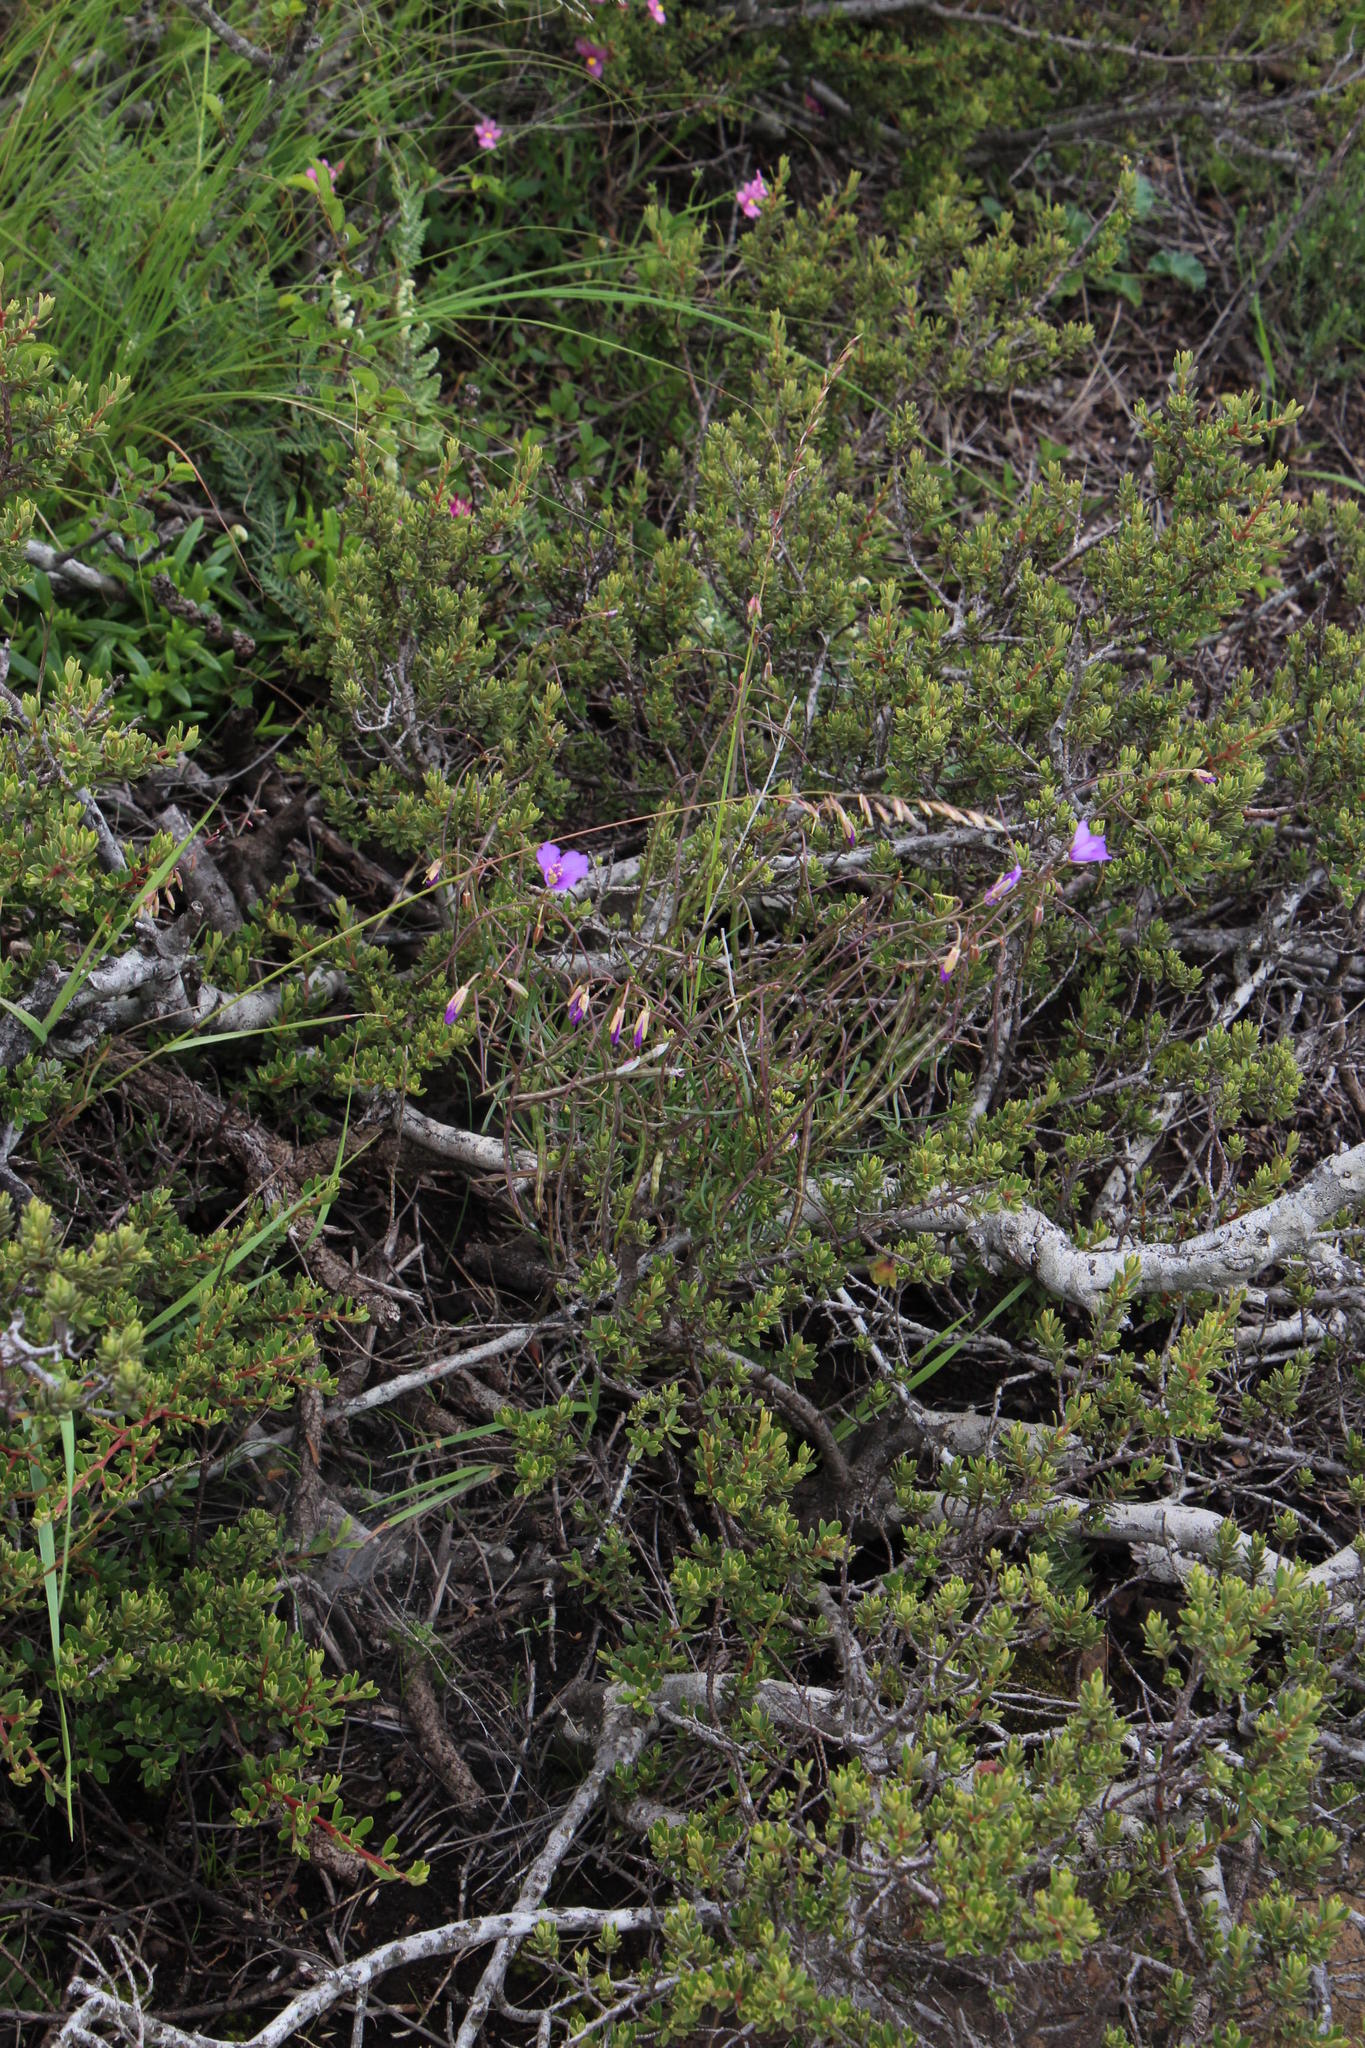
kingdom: Plantae
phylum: Tracheophyta
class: Magnoliopsida
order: Brassicales
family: Brassicaceae
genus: Heliophila
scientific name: Heliophila suavissima
